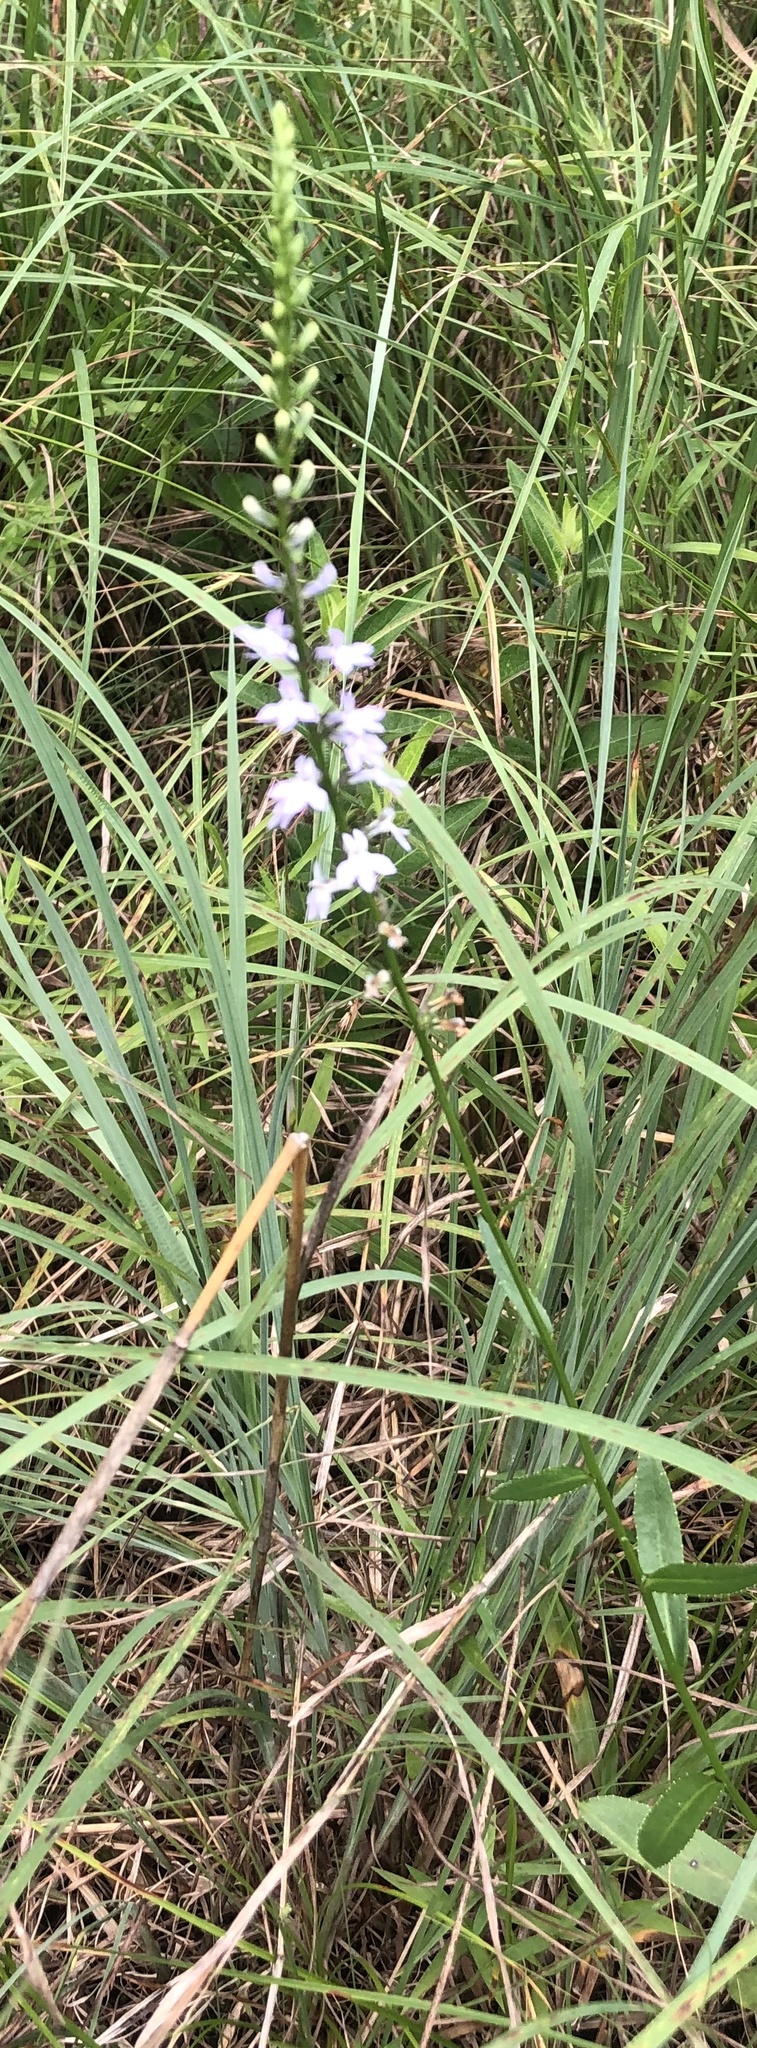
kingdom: Plantae
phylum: Tracheophyta
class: Magnoliopsida
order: Asterales
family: Campanulaceae
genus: Lobelia
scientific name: Lobelia spicata
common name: Pale-spike lobelia
